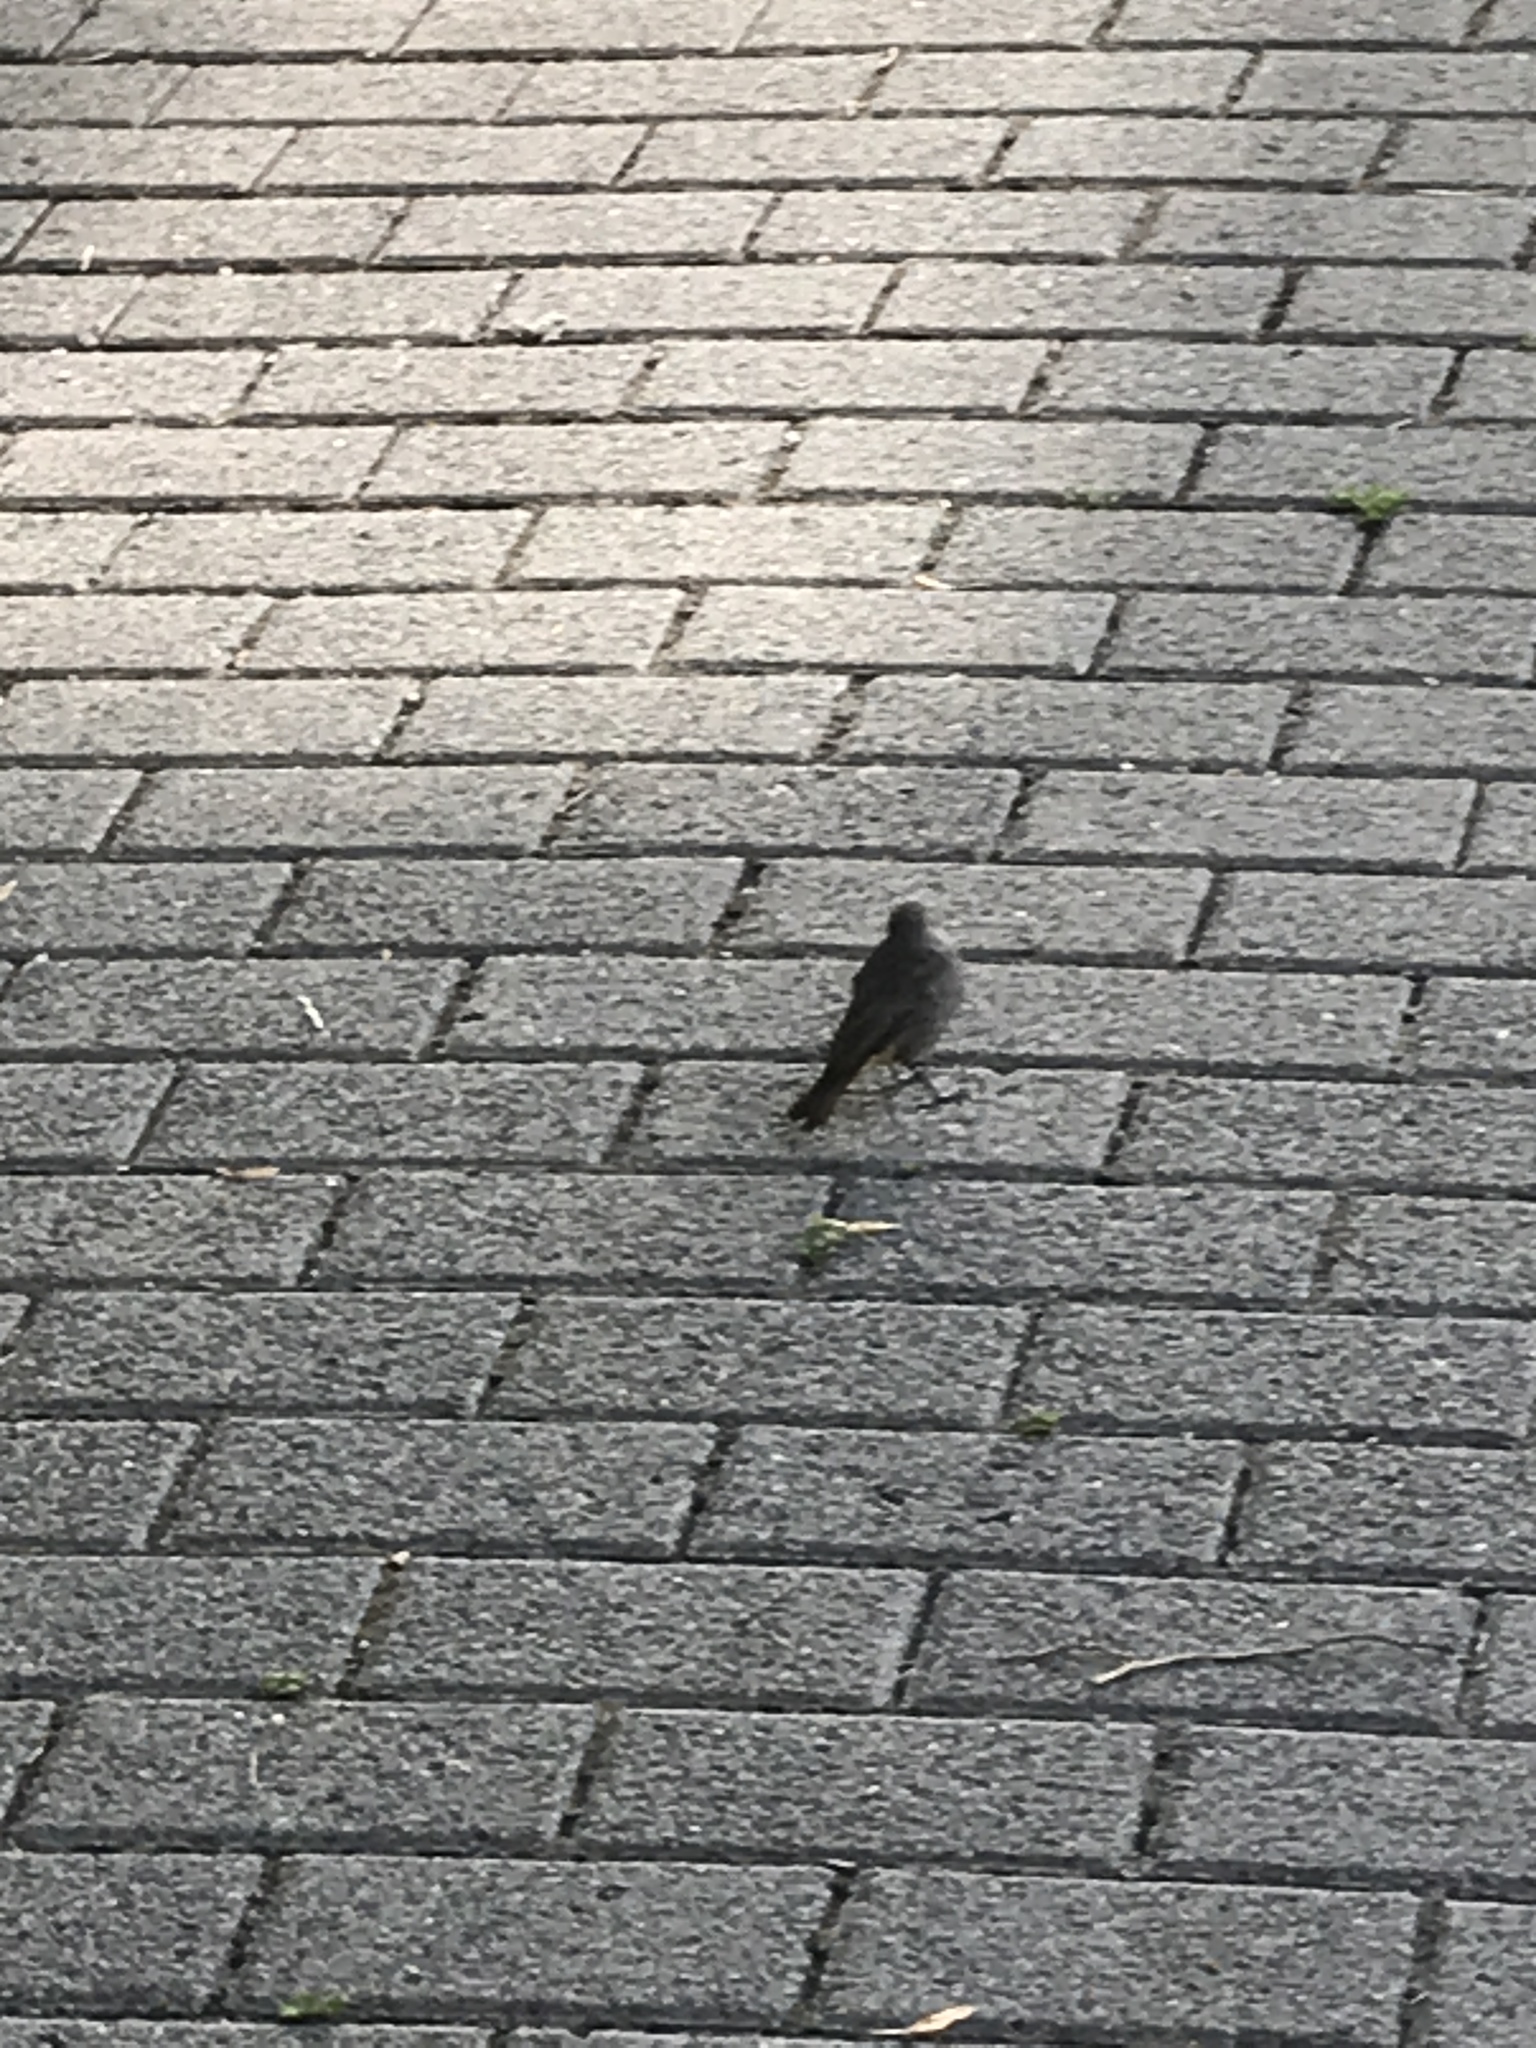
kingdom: Animalia
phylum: Chordata
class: Aves
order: Passeriformes
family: Muscicapidae
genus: Phoenicurus
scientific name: Phoenicurus ochruros
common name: Black redstart
